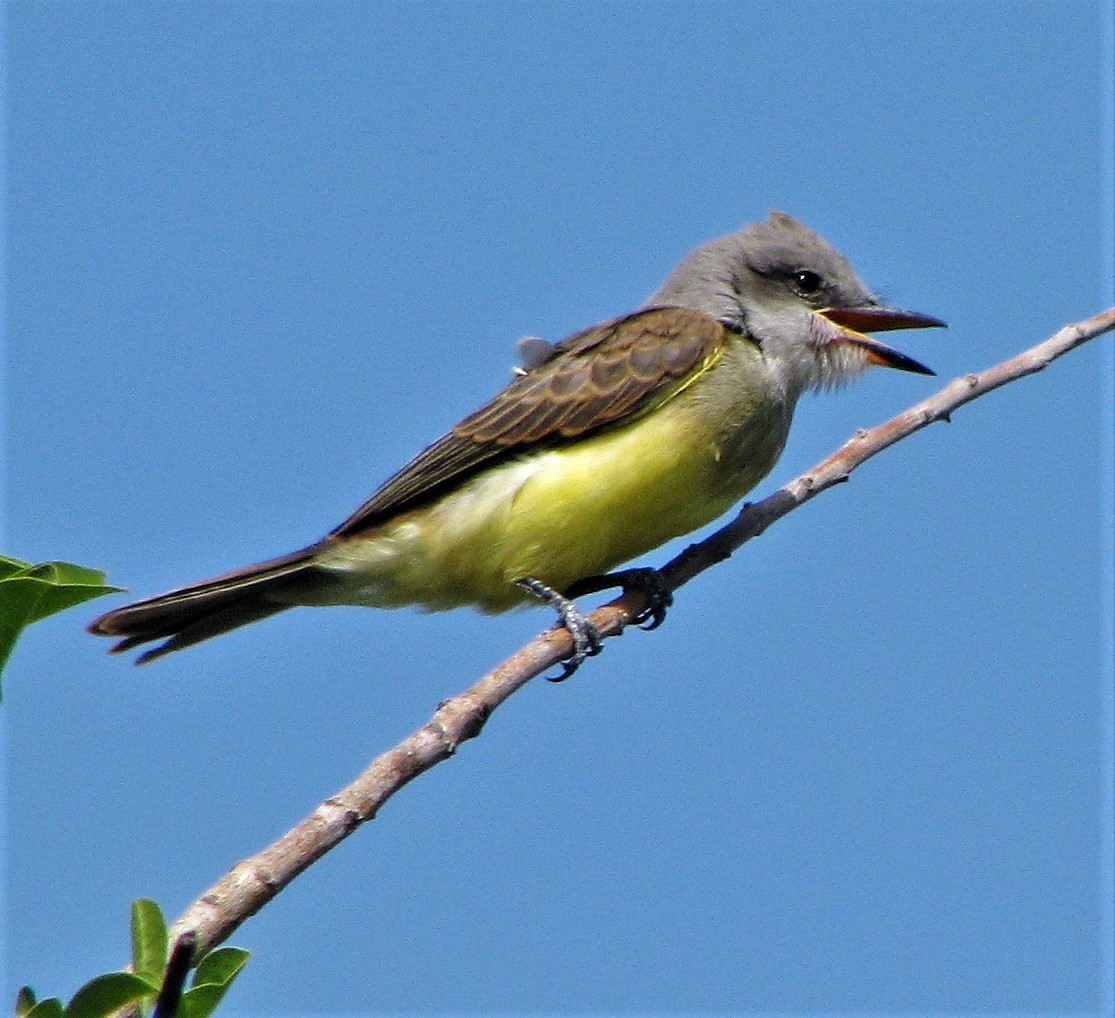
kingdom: Animalia
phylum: Chordata
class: Aves
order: Passeriformes
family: Tyrannidae
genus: Tyrannus
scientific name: Tyrannus melancholicus
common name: Tropical kingbird
